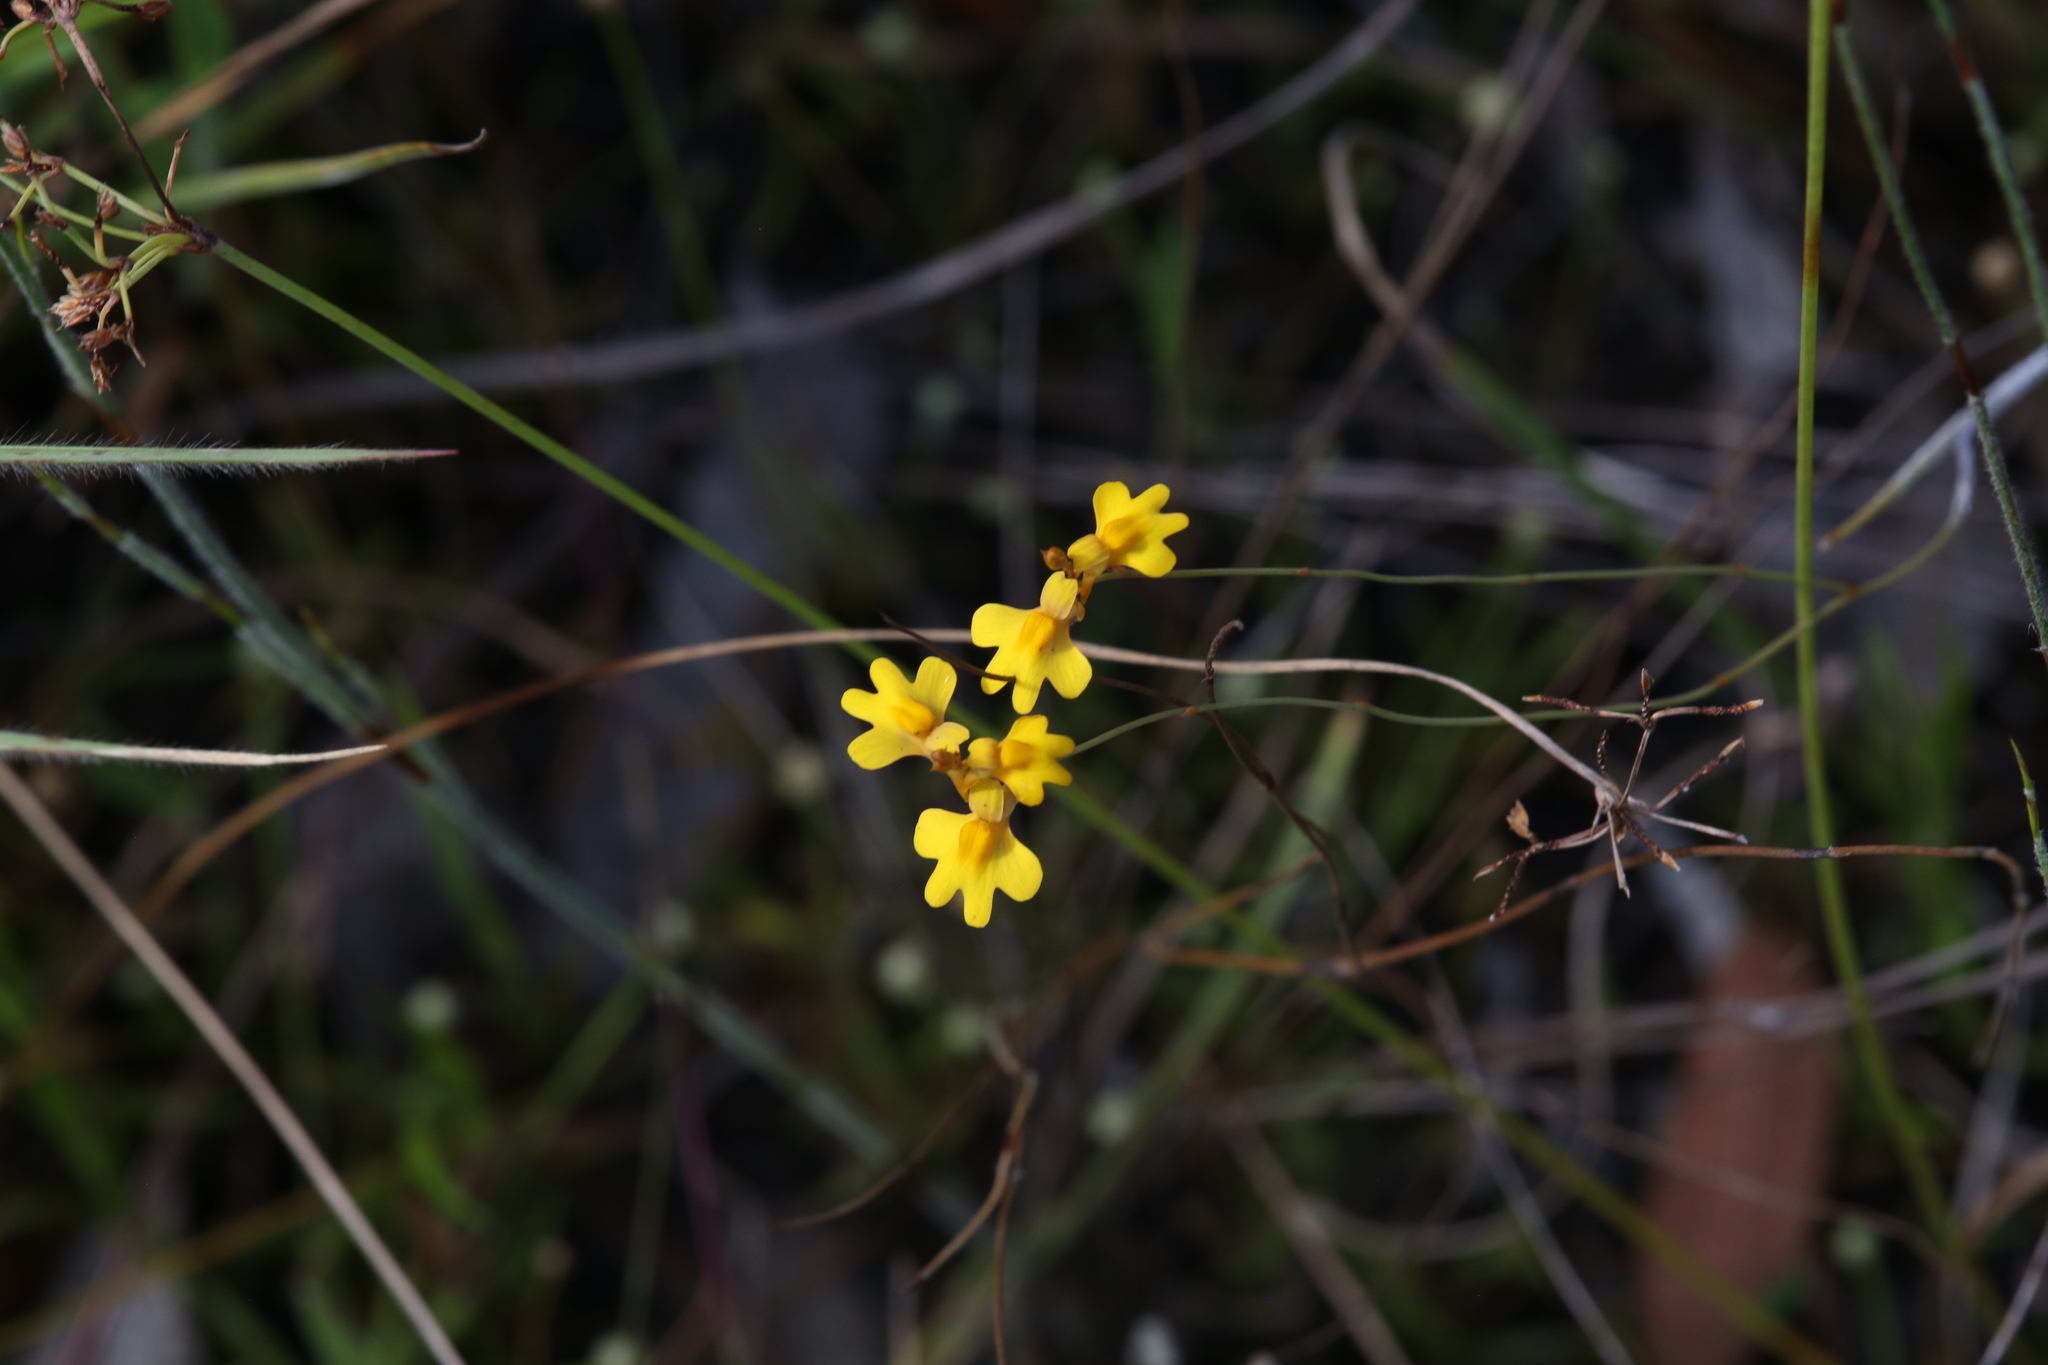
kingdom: Plantae
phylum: Tracheophyta
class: Magnoliopsida
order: Lamiales
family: Lentibulariaceae
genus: Utricularia
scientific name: Utricularia chrysantha
